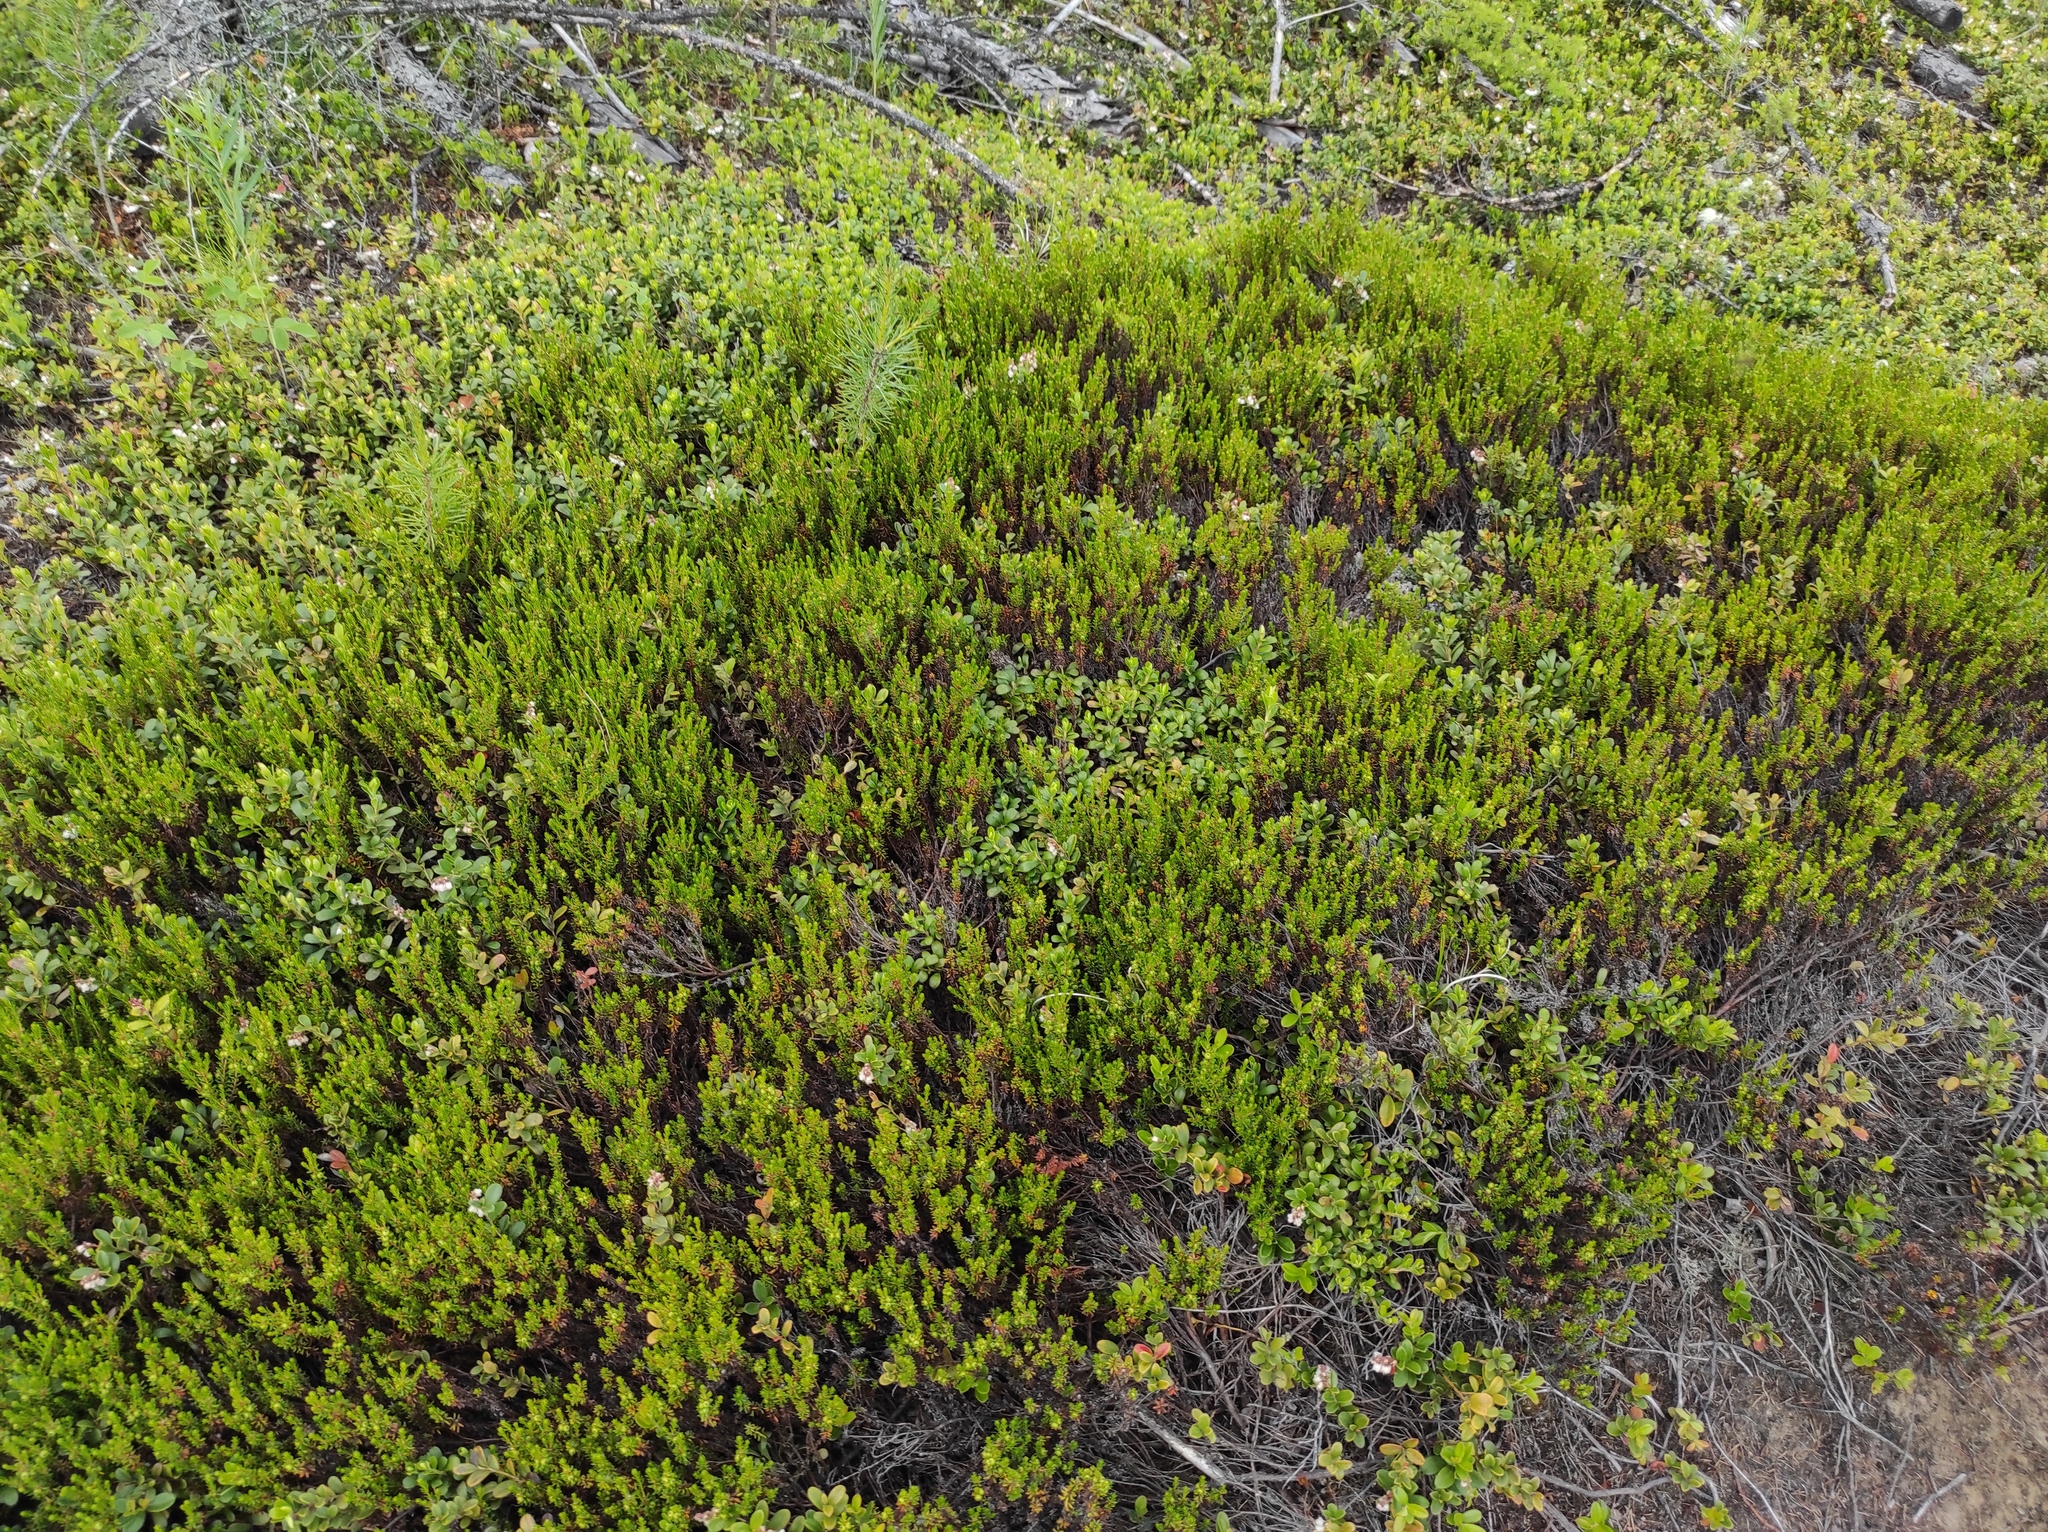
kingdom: Plantae
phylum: Tracheophyta
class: Magnoliopsida
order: Ericales
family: Ericaceae
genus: Vaccinium
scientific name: Vaccinium vitis-idaea
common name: Cowberry
